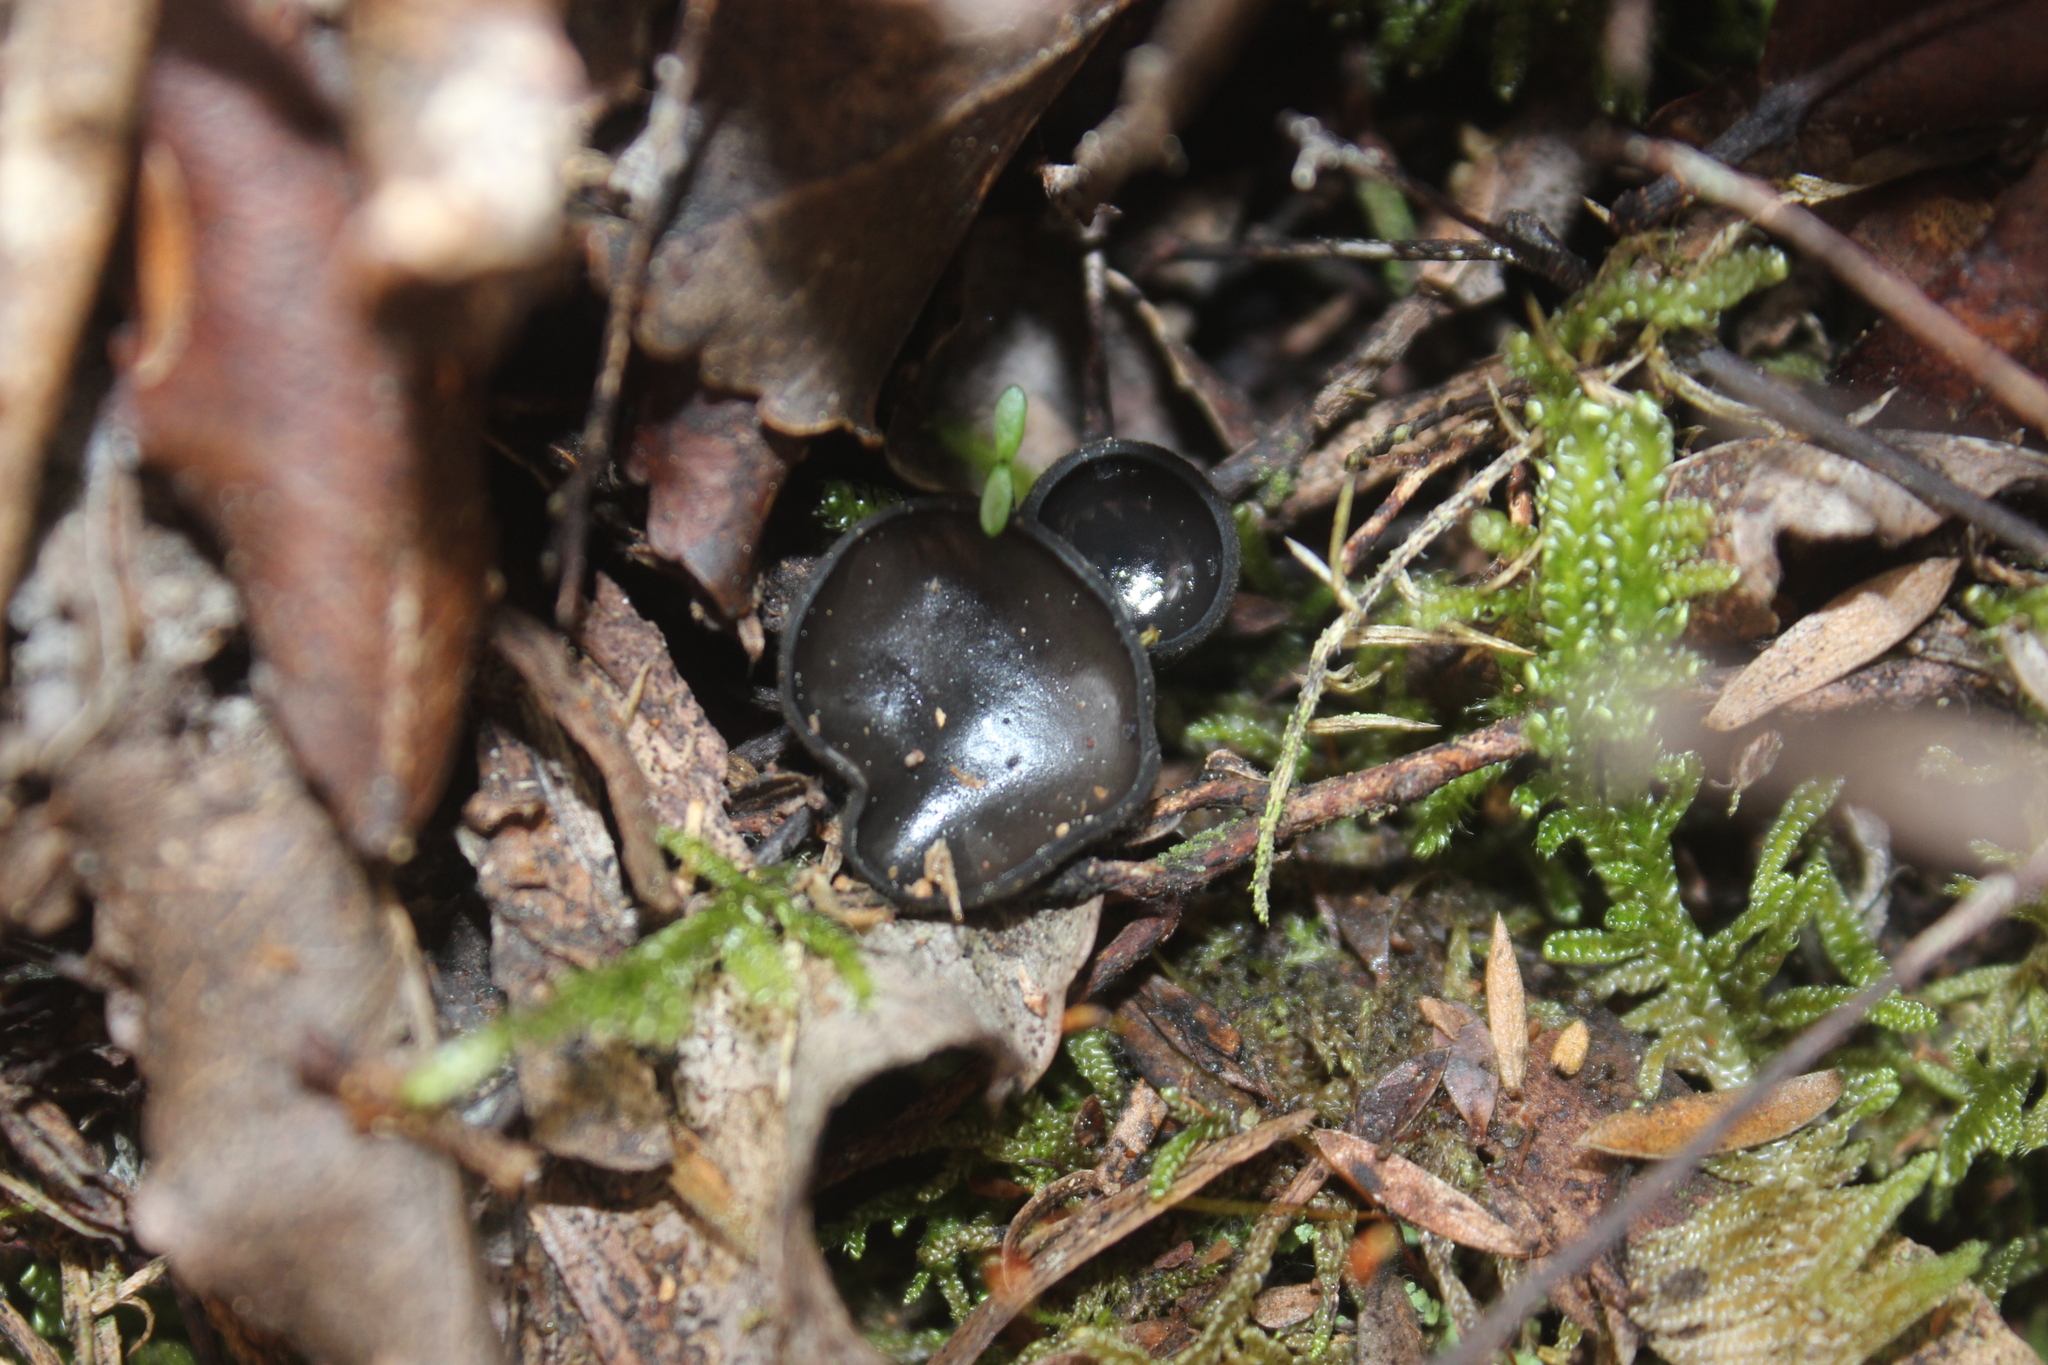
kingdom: Fungi
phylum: Ascomycota
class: Pezizomycetes
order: Pezizales
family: Sarcosomataceae
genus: Plectania
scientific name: Plectania campylospora
